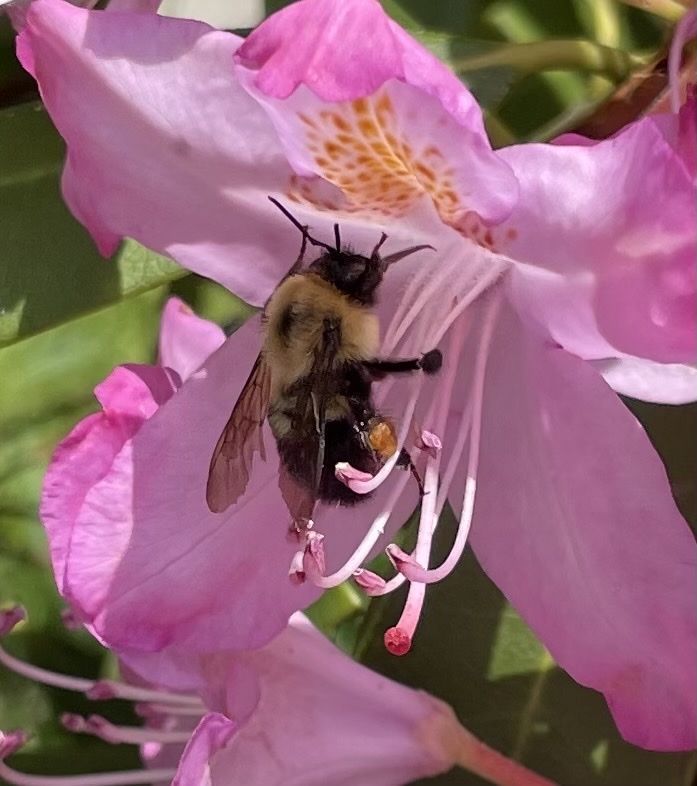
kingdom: Animalia
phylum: Arthropoda
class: Insecta
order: Hymenoptera
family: Apidae
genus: Bombus
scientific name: Bombus bimaculatus
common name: Two-spotted bumble bee
